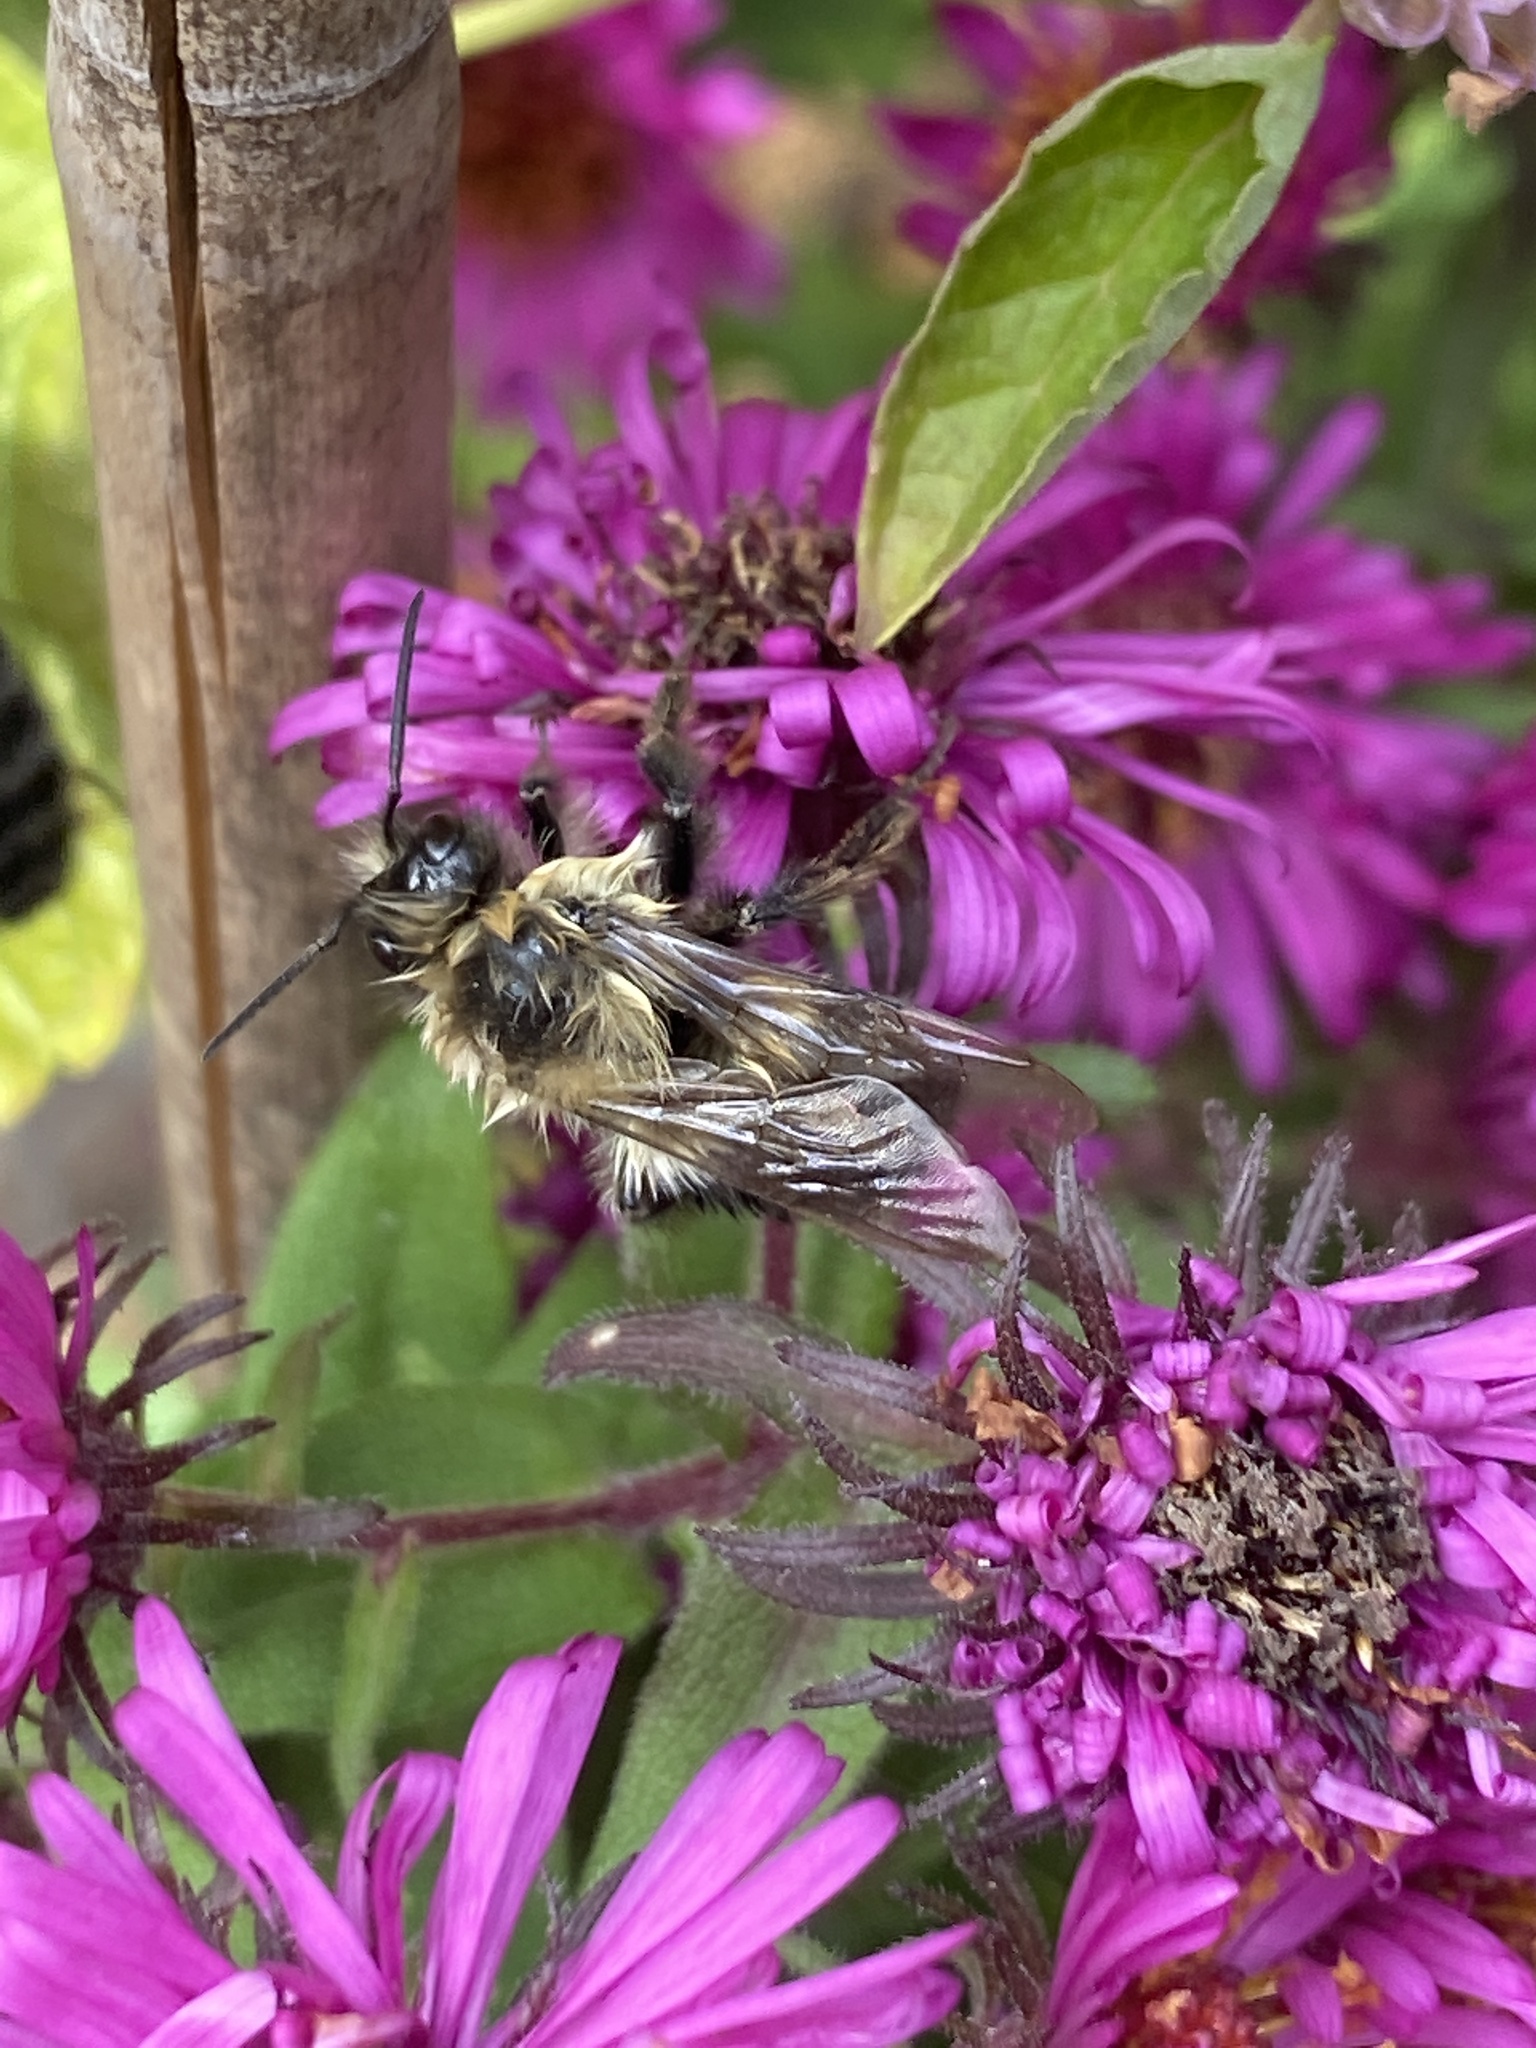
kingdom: Animalia
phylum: Arthropoda
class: Insecta
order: Hymenoptera
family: Apidae
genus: Bombus
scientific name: Bombus impatiens
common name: Common eastern bumble bee
